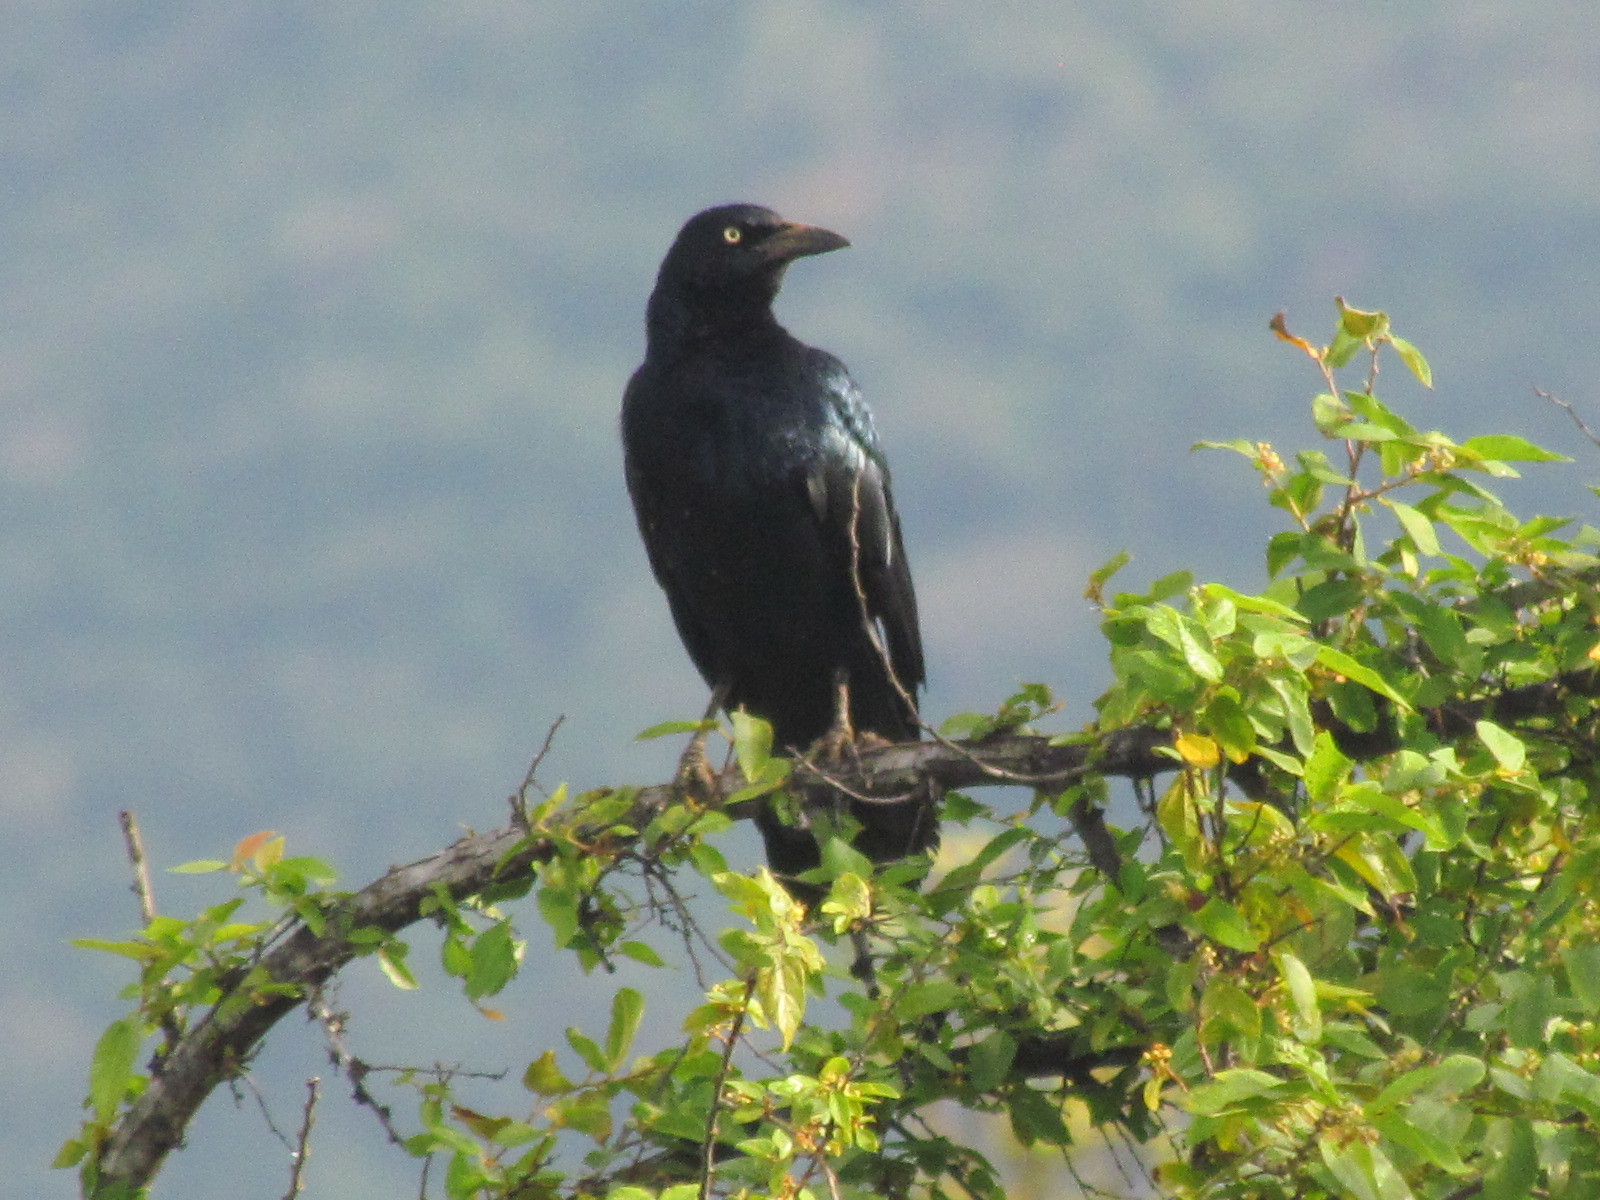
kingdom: Animalia
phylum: Chordata
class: Aves
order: Passeriformes
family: Icteridae
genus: Quiscalus
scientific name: Quiscalus mexicanus
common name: Great-tailed grackle
